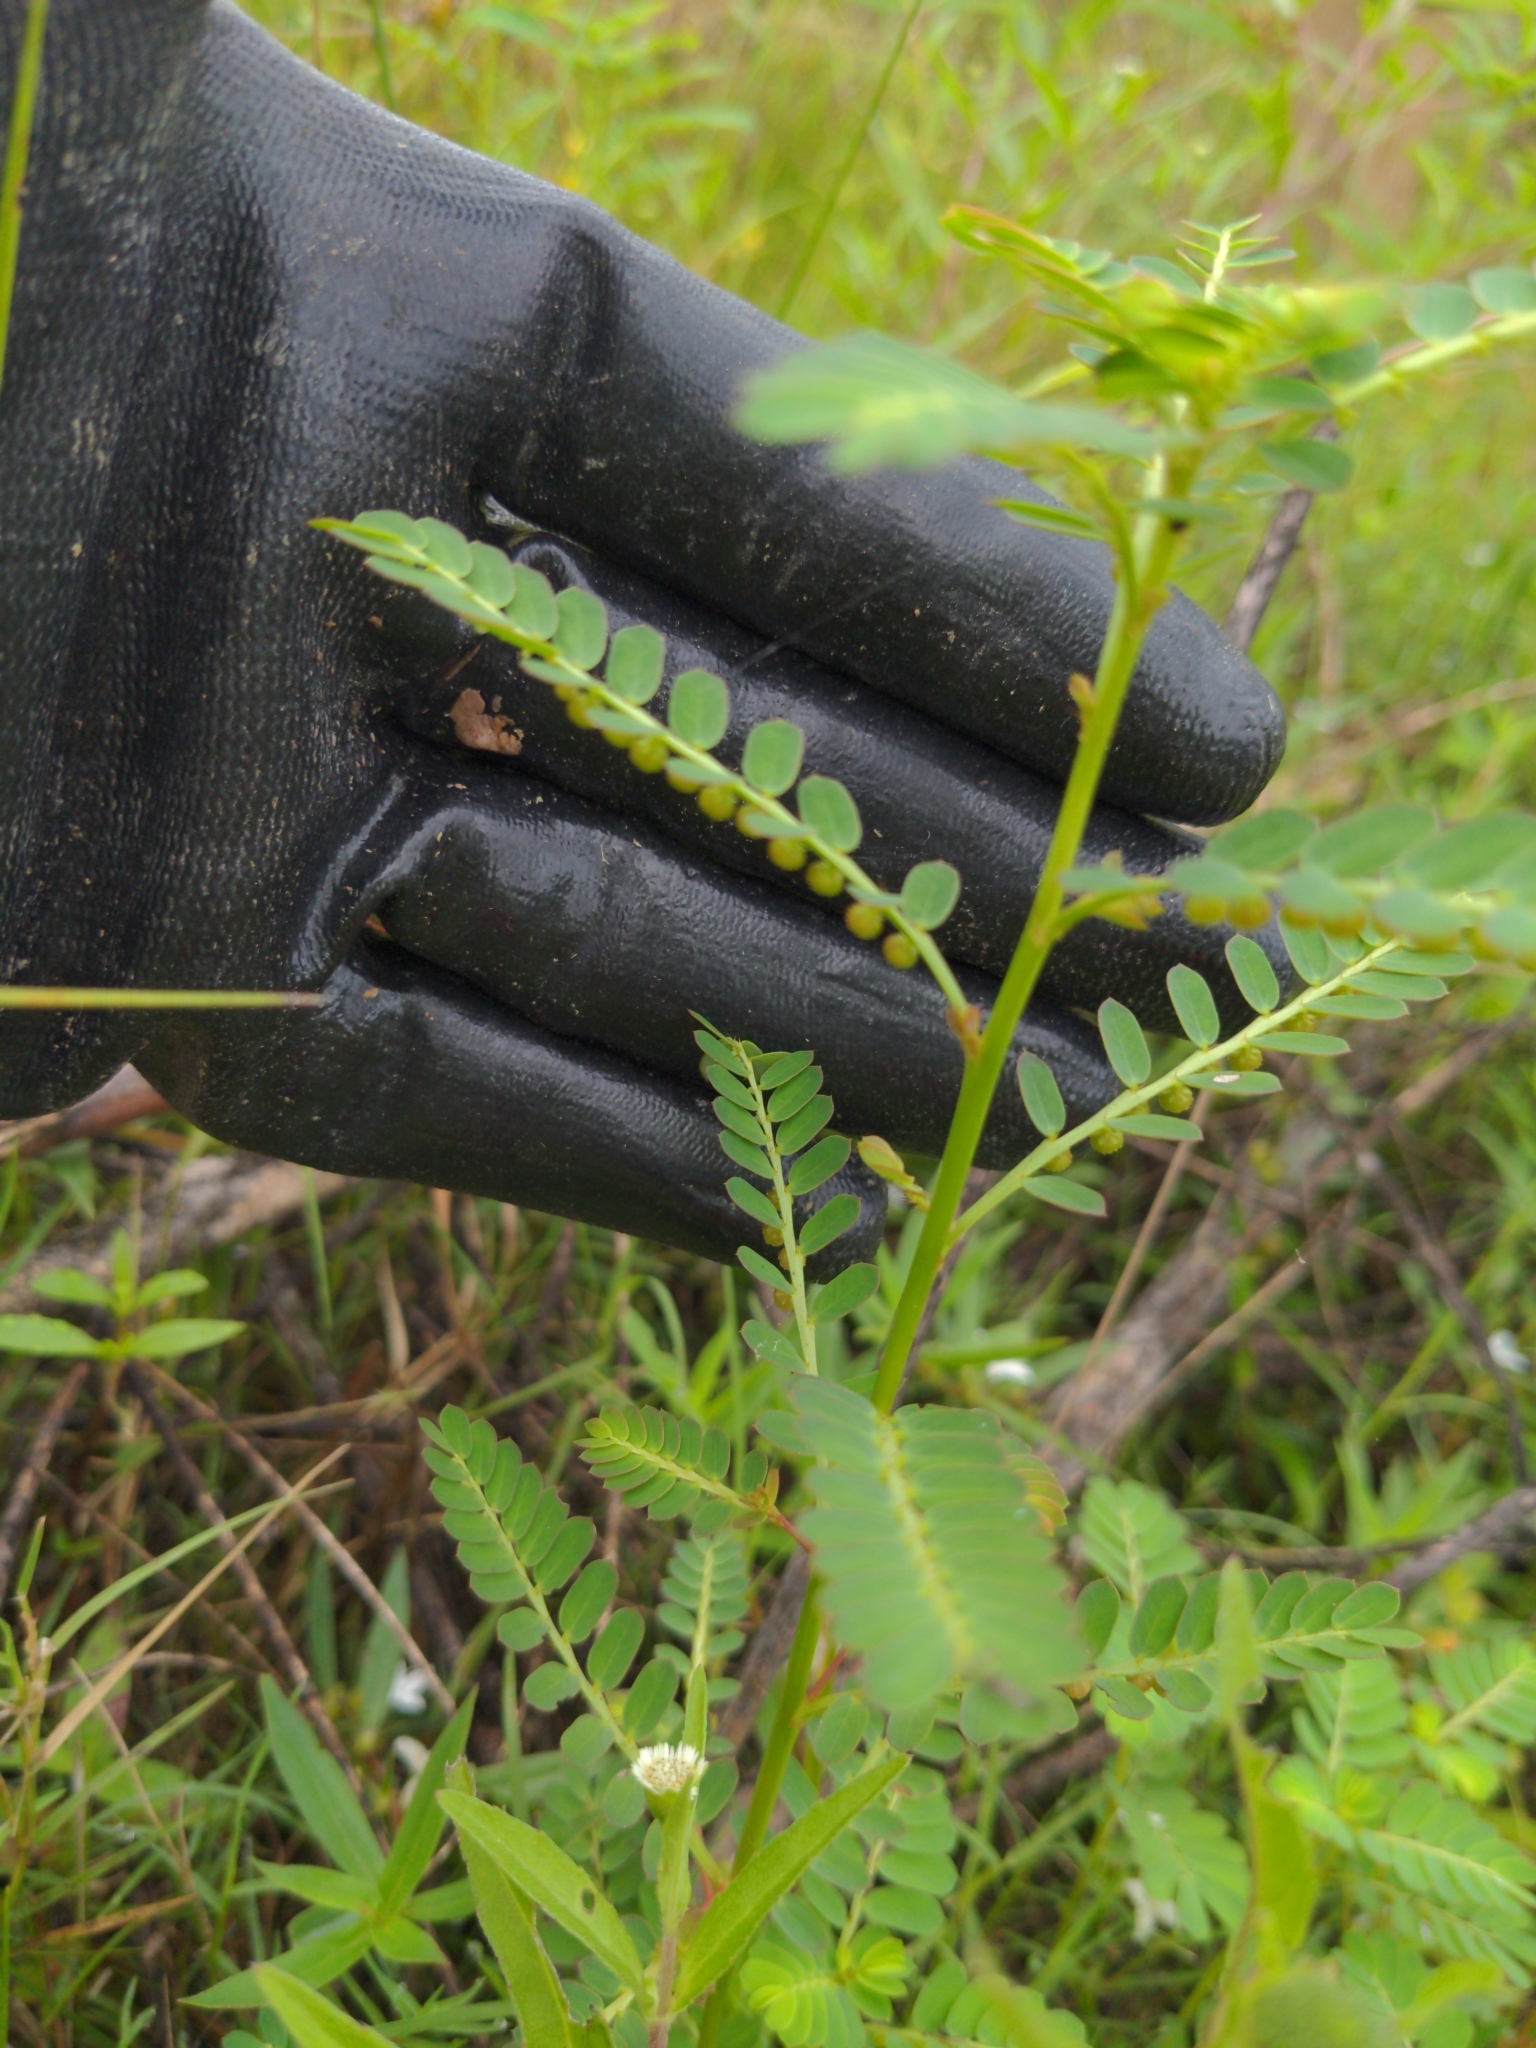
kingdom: Plantae
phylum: Tracheophyta
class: Magnoliopsida
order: Malpighiales
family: Phyllanthaceae
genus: Phyllanthus
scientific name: Phyllanthus urinaria
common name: Chamber bitter
